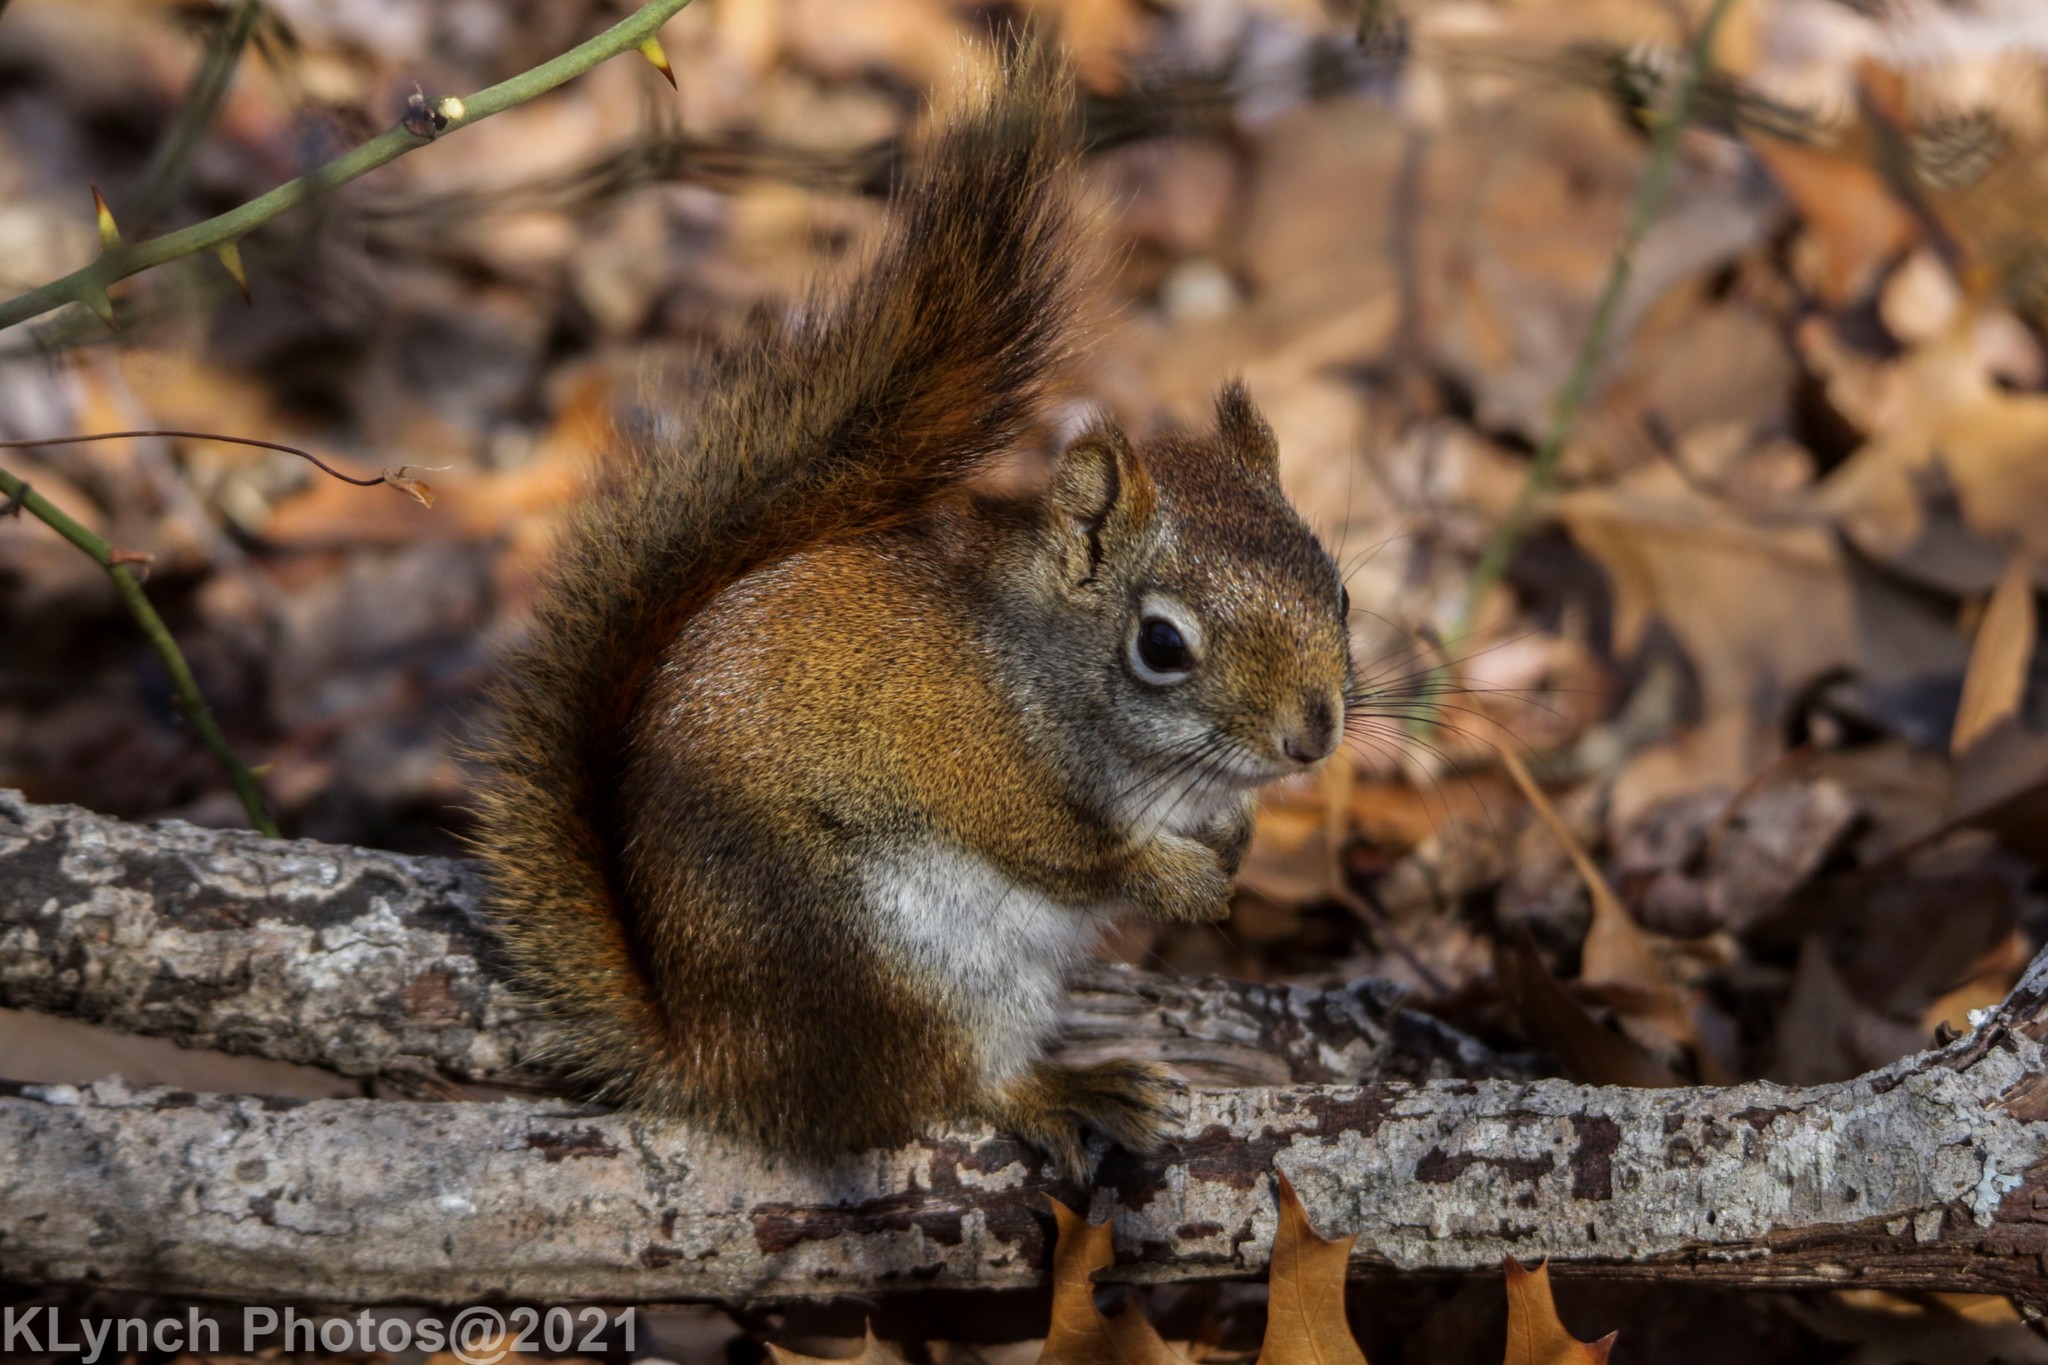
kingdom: Animalia
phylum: Chordata
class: Mammalia
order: Rodentia
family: Sciuridae
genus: Tamiasciurus
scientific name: Tamiasciurus hudsonicus
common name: Red squirrel
